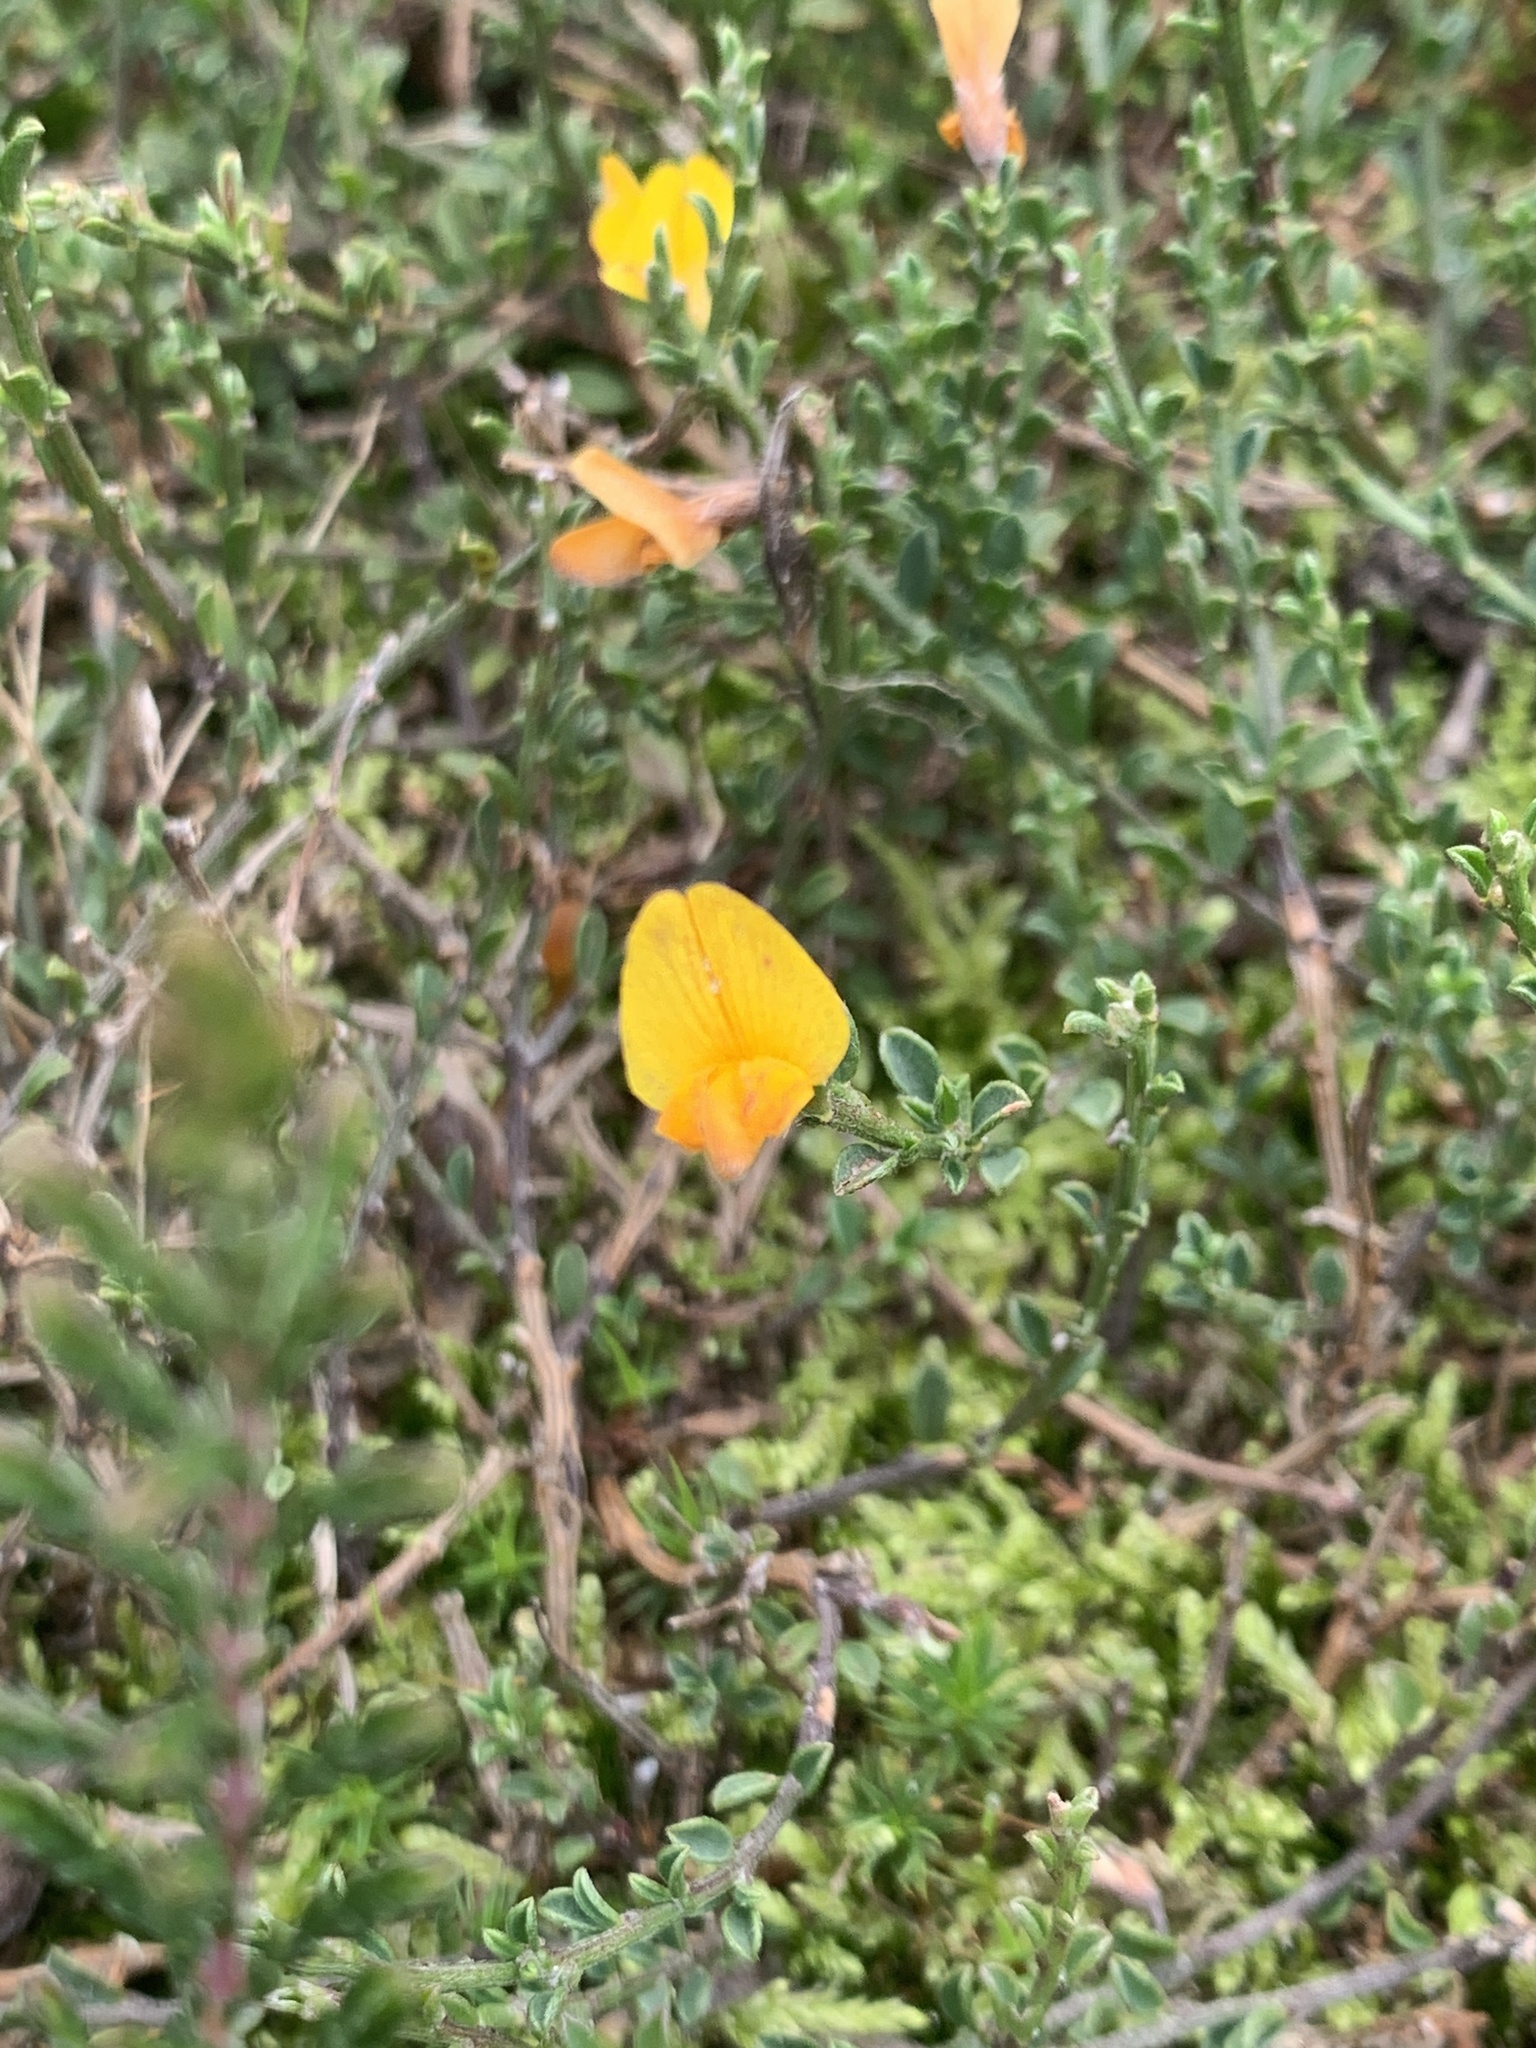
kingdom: Plantae
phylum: Tracheophyta
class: Magnoliopsida
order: Fabales
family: Fabaceae
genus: Lotus
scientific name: Lotus corniculatus
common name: Common bird's-foot-trefoil
